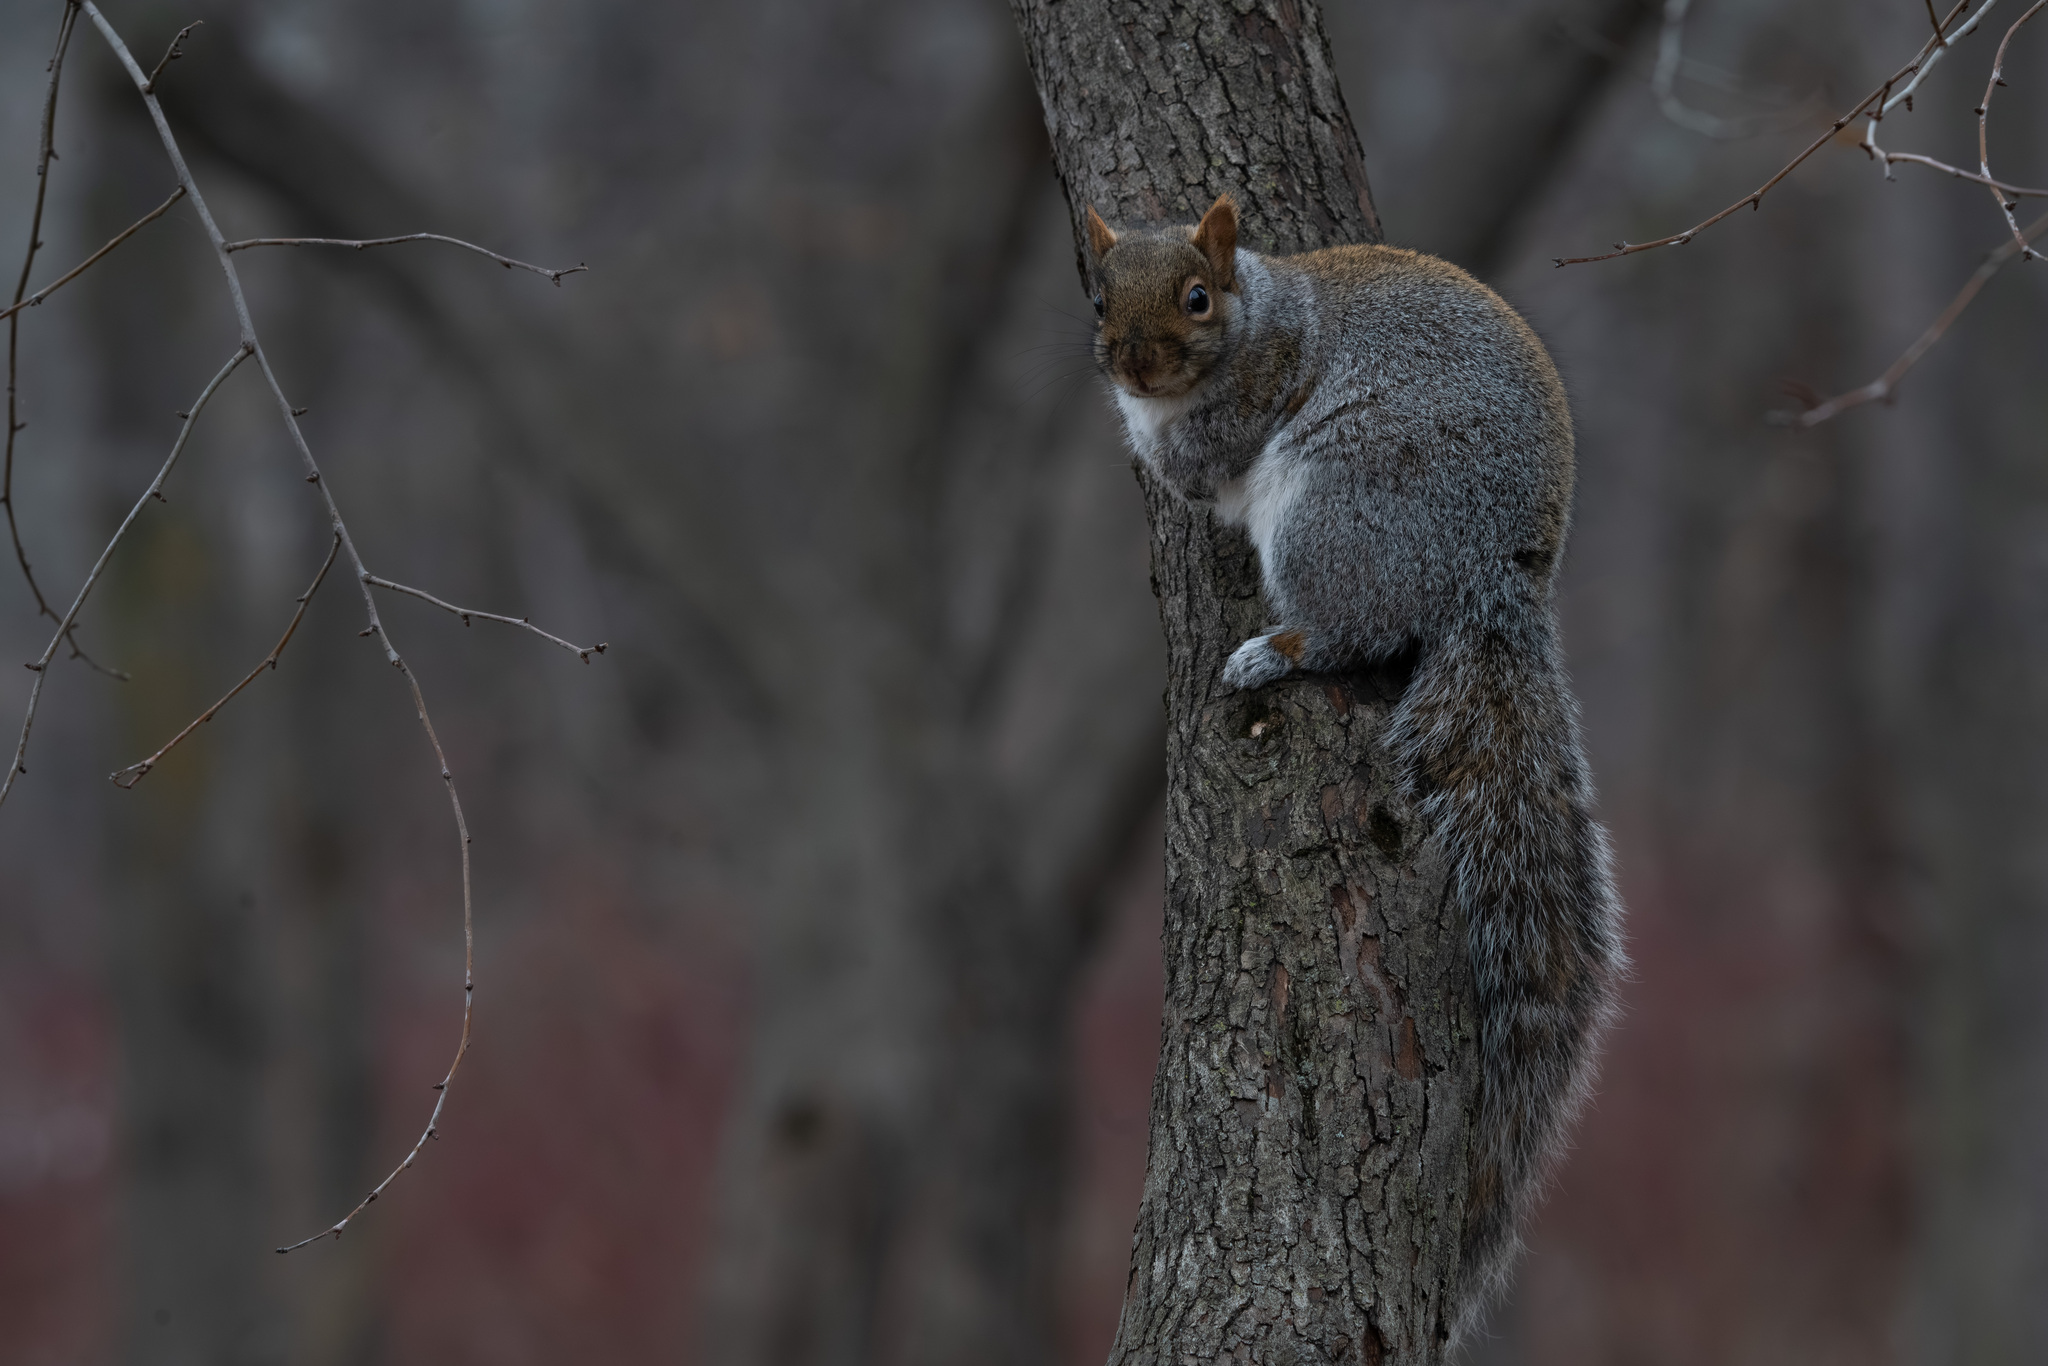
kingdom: Animalia
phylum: Chordata
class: Mammalia
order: Rodentia
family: Sciuridae
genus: Sciurus
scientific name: Sciurus carolinensis
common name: Eastern gray squirrel
